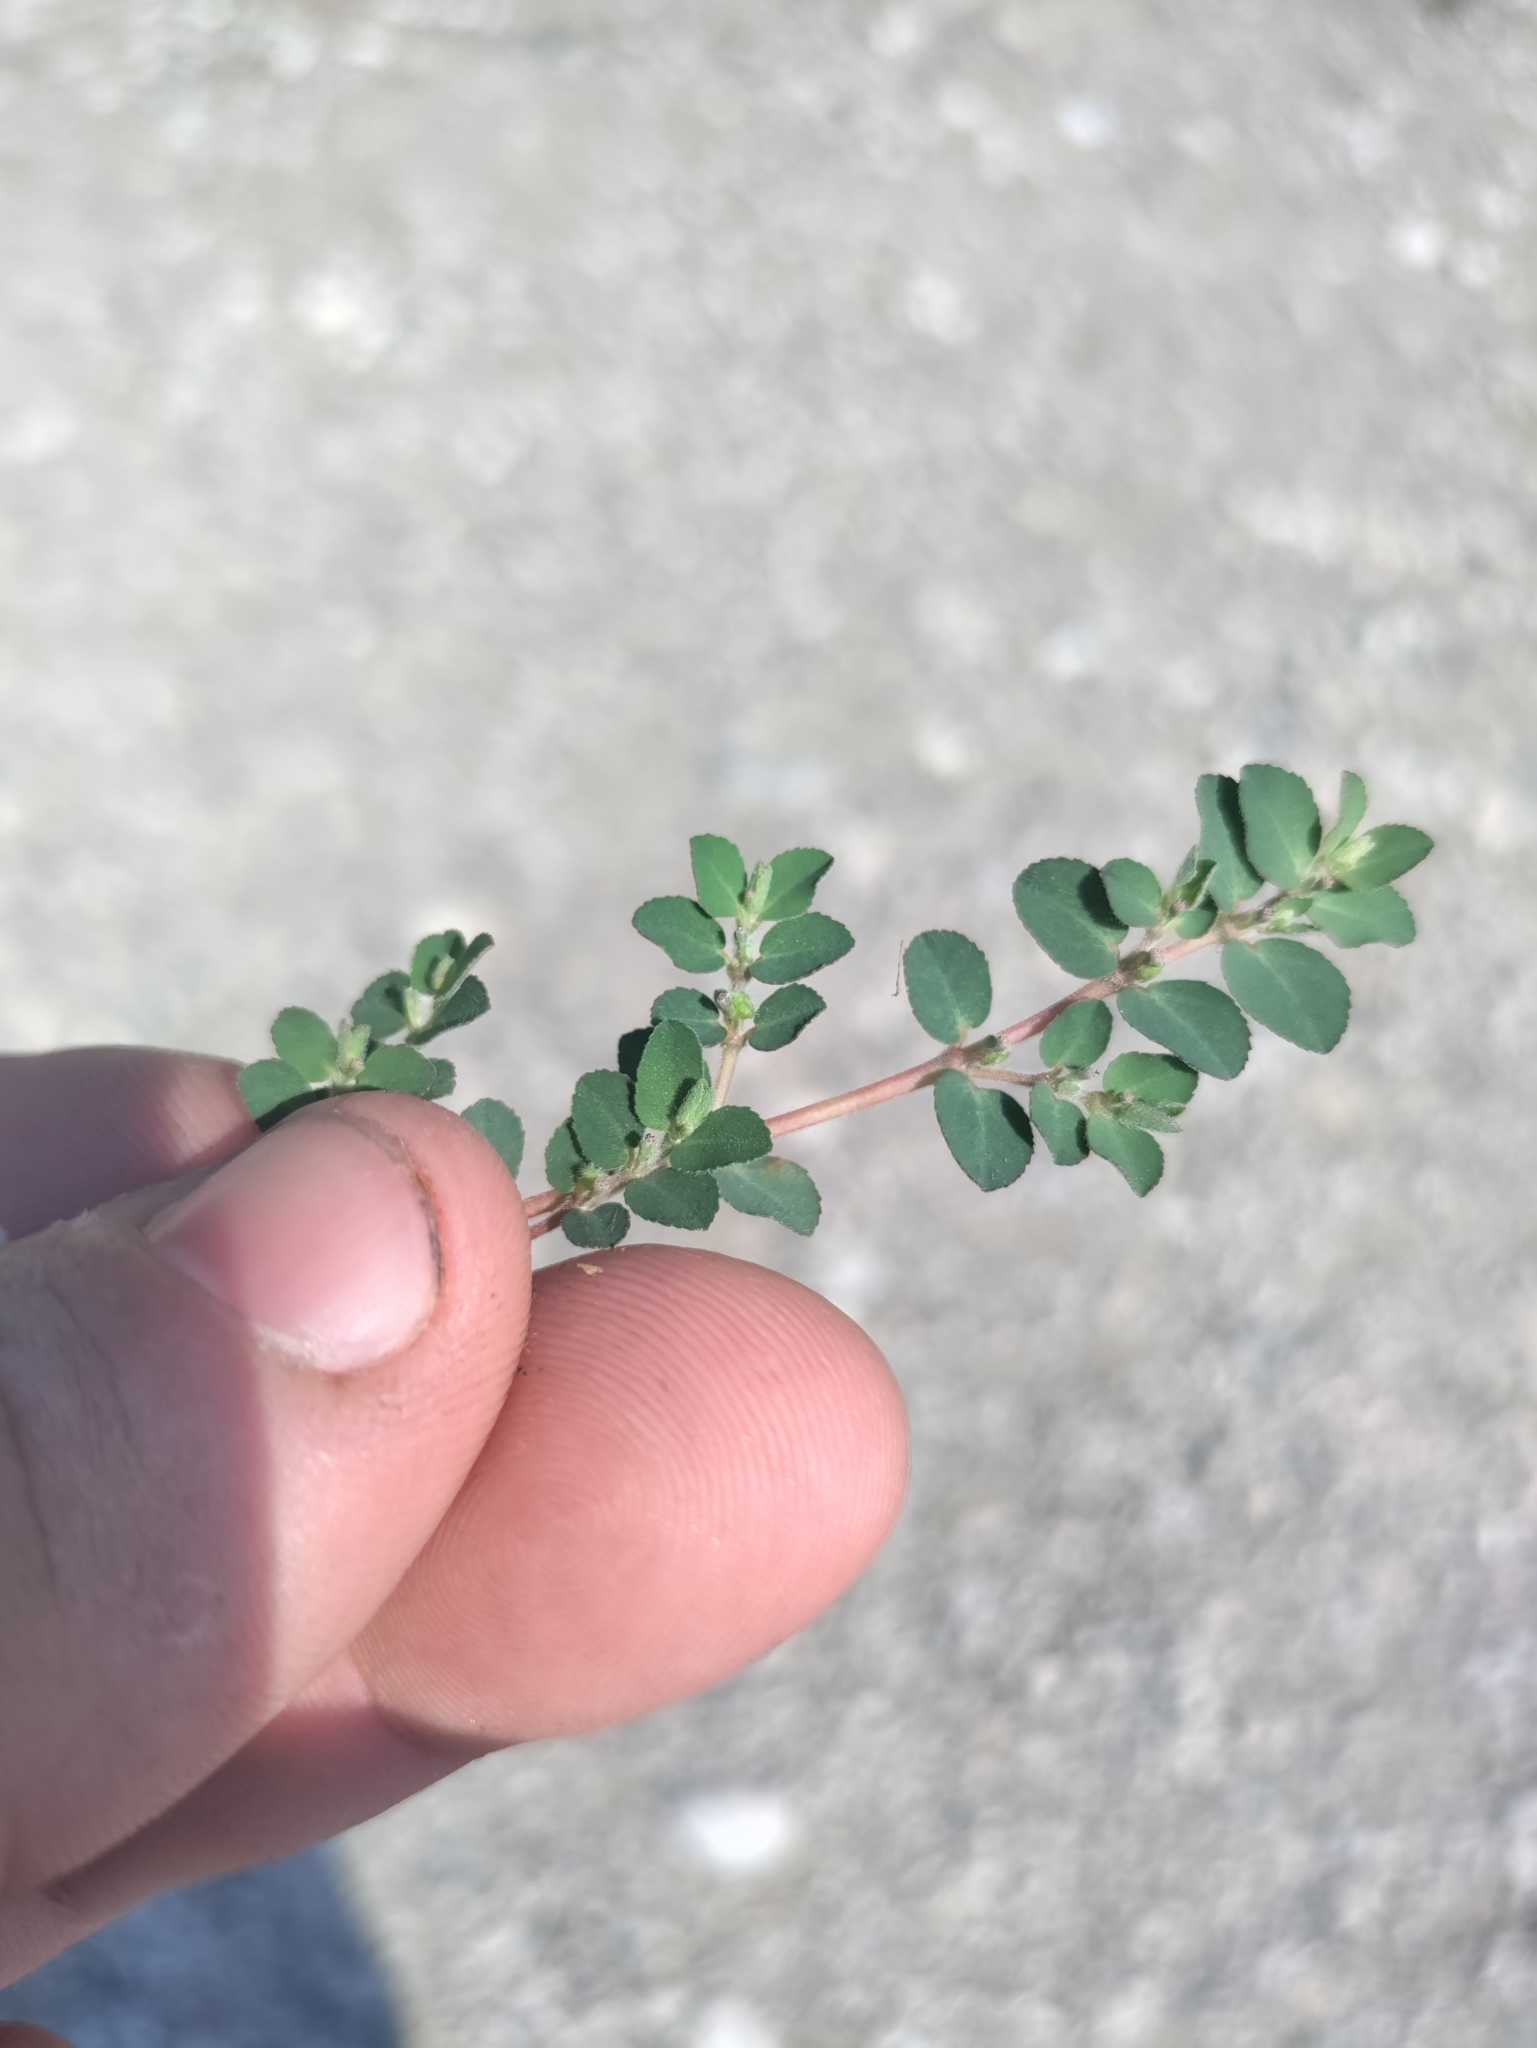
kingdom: Plantae
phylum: Tracheophyta
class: Magnoliopsida
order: Malpighiales
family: Euphorbiaceae
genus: Euphorbia
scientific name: Euphorbia prostrata
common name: Prostrate sandmat
